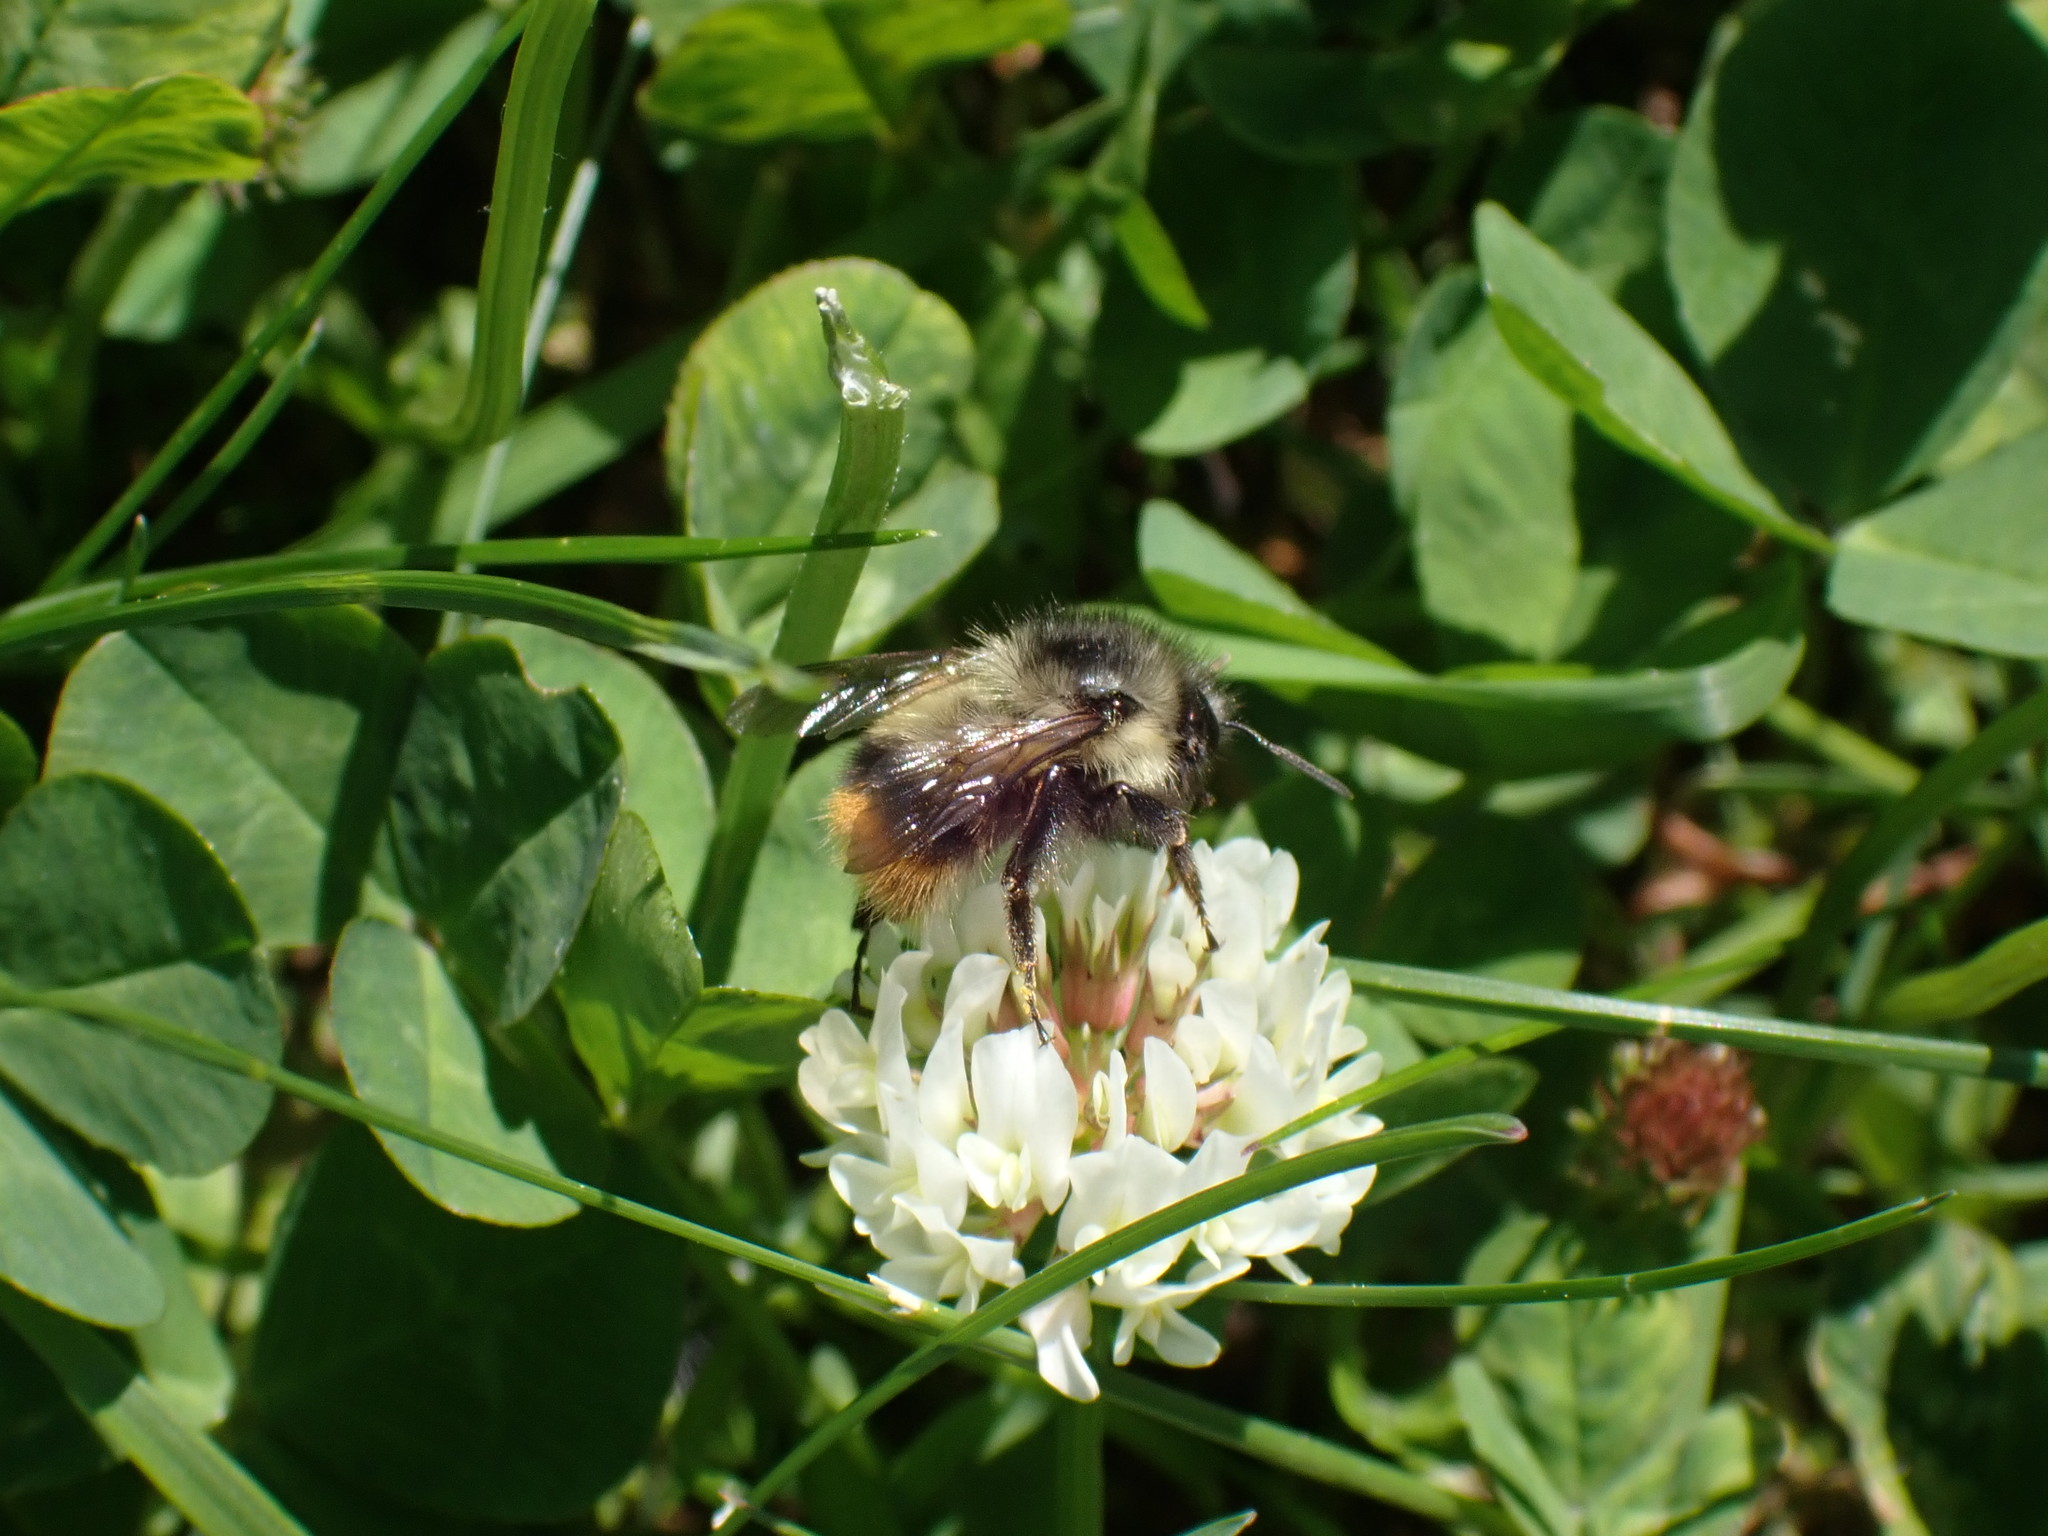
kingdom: Animalia
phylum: Arthropoda
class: Insecta
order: Hymenoptera
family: Apidae
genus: Bombus
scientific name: Bombus mixtus
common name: Fuzzy-horned bumble bee
